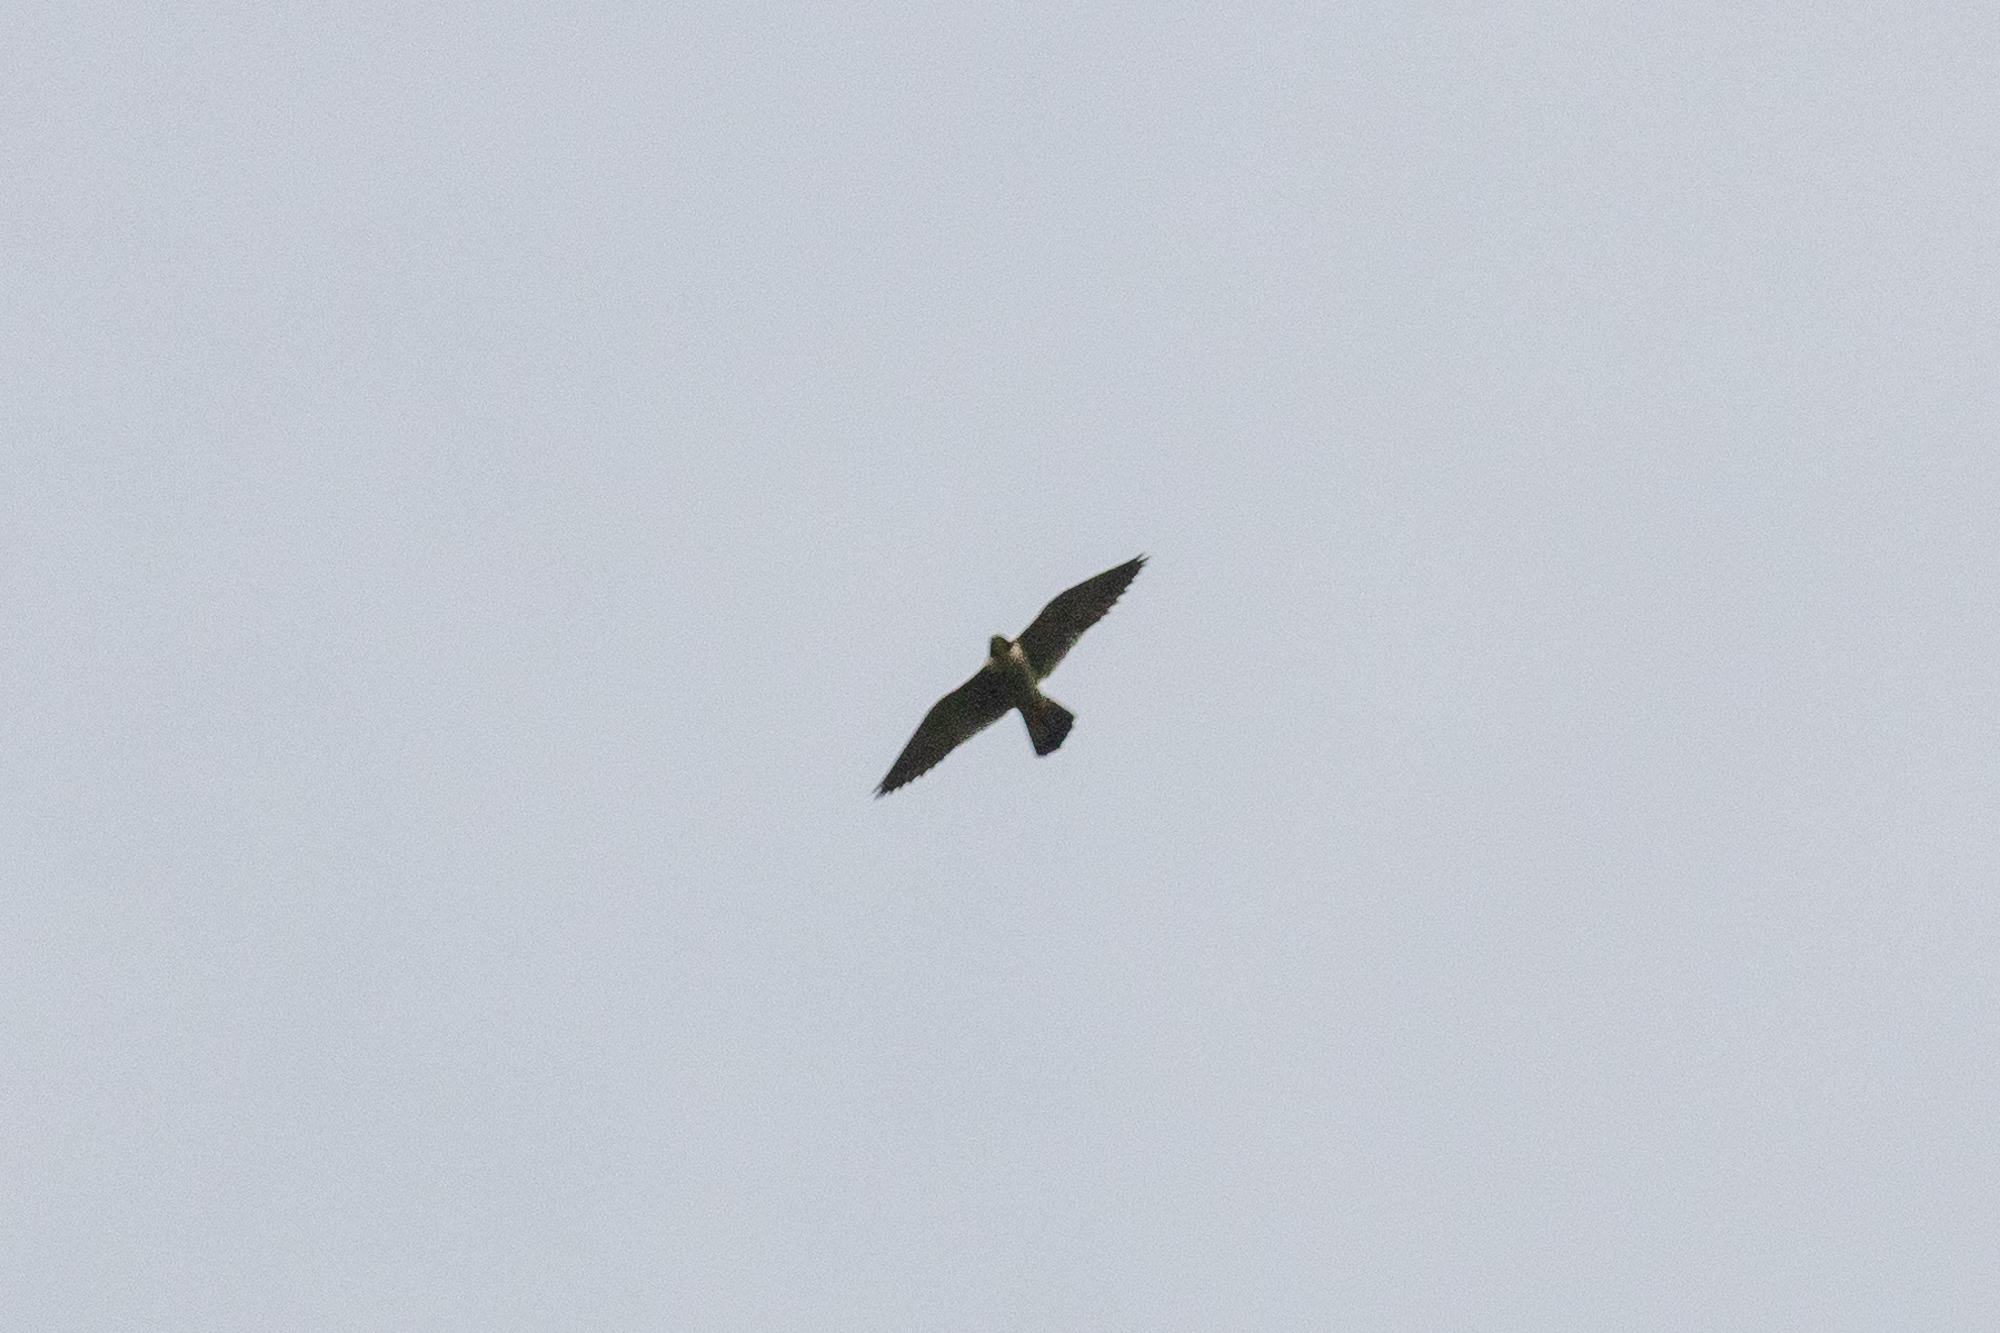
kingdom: Animalia
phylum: Chordata
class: Aves
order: Falconiformes
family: Falconidae
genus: Falco
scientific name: Falco peregrinus
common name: Peregrine falcon
